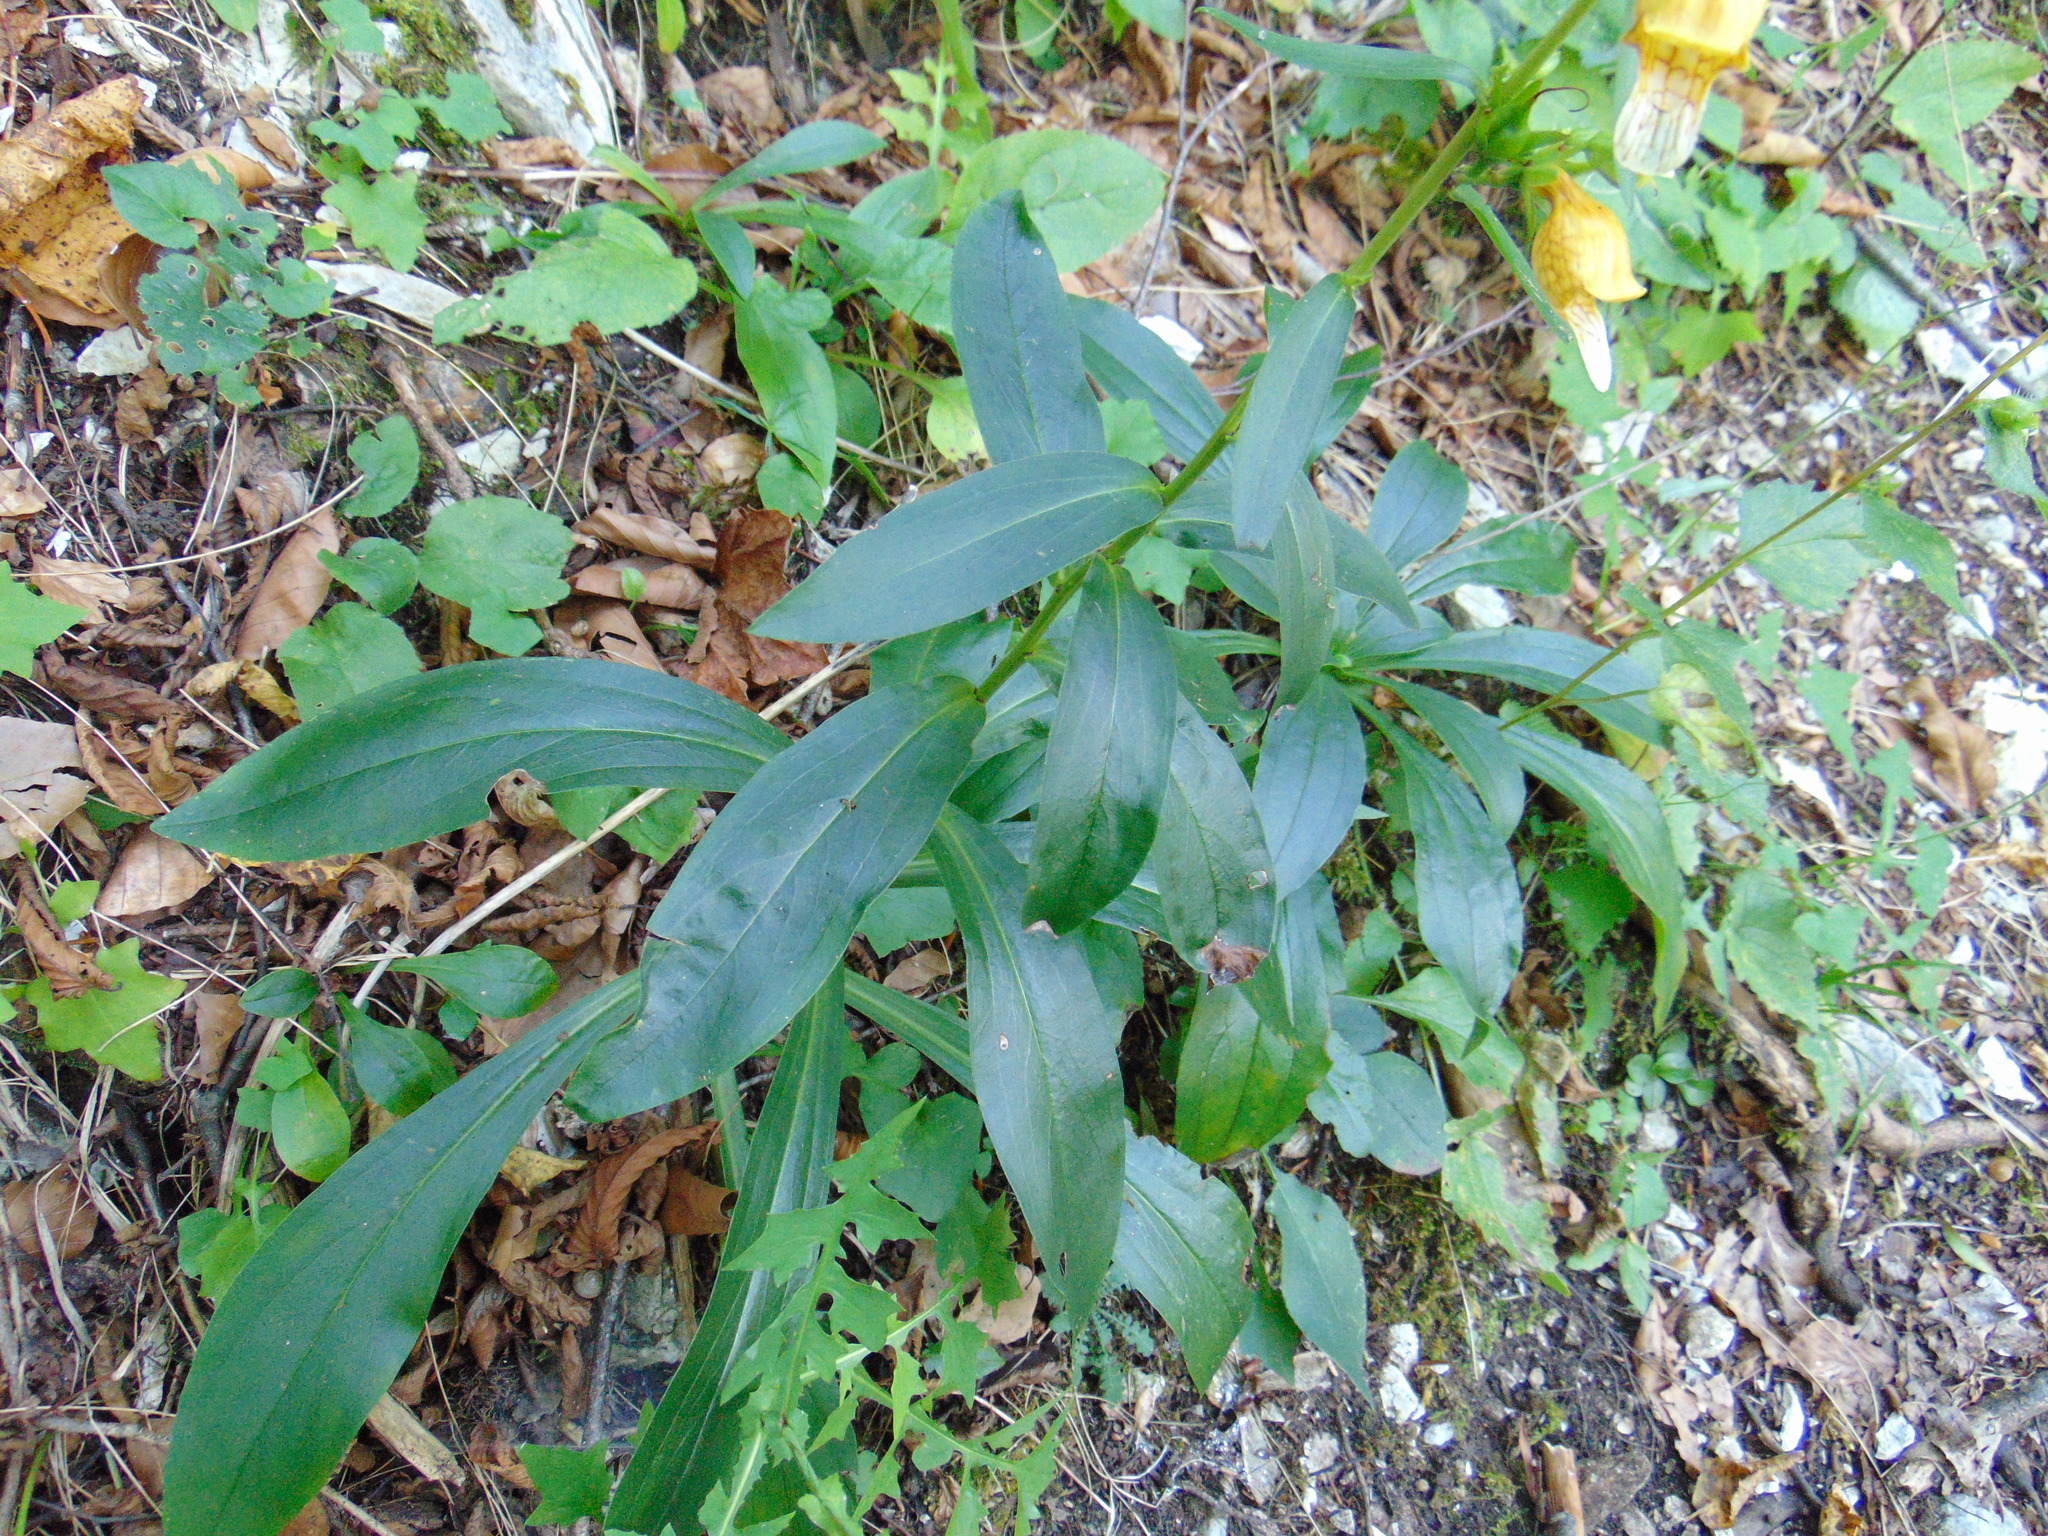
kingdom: Plantae
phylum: Tracheophyta
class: Magnoliopsida
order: Lamiales
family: Plantaginaceae
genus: Digitalis
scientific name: Digitalis laevigata
